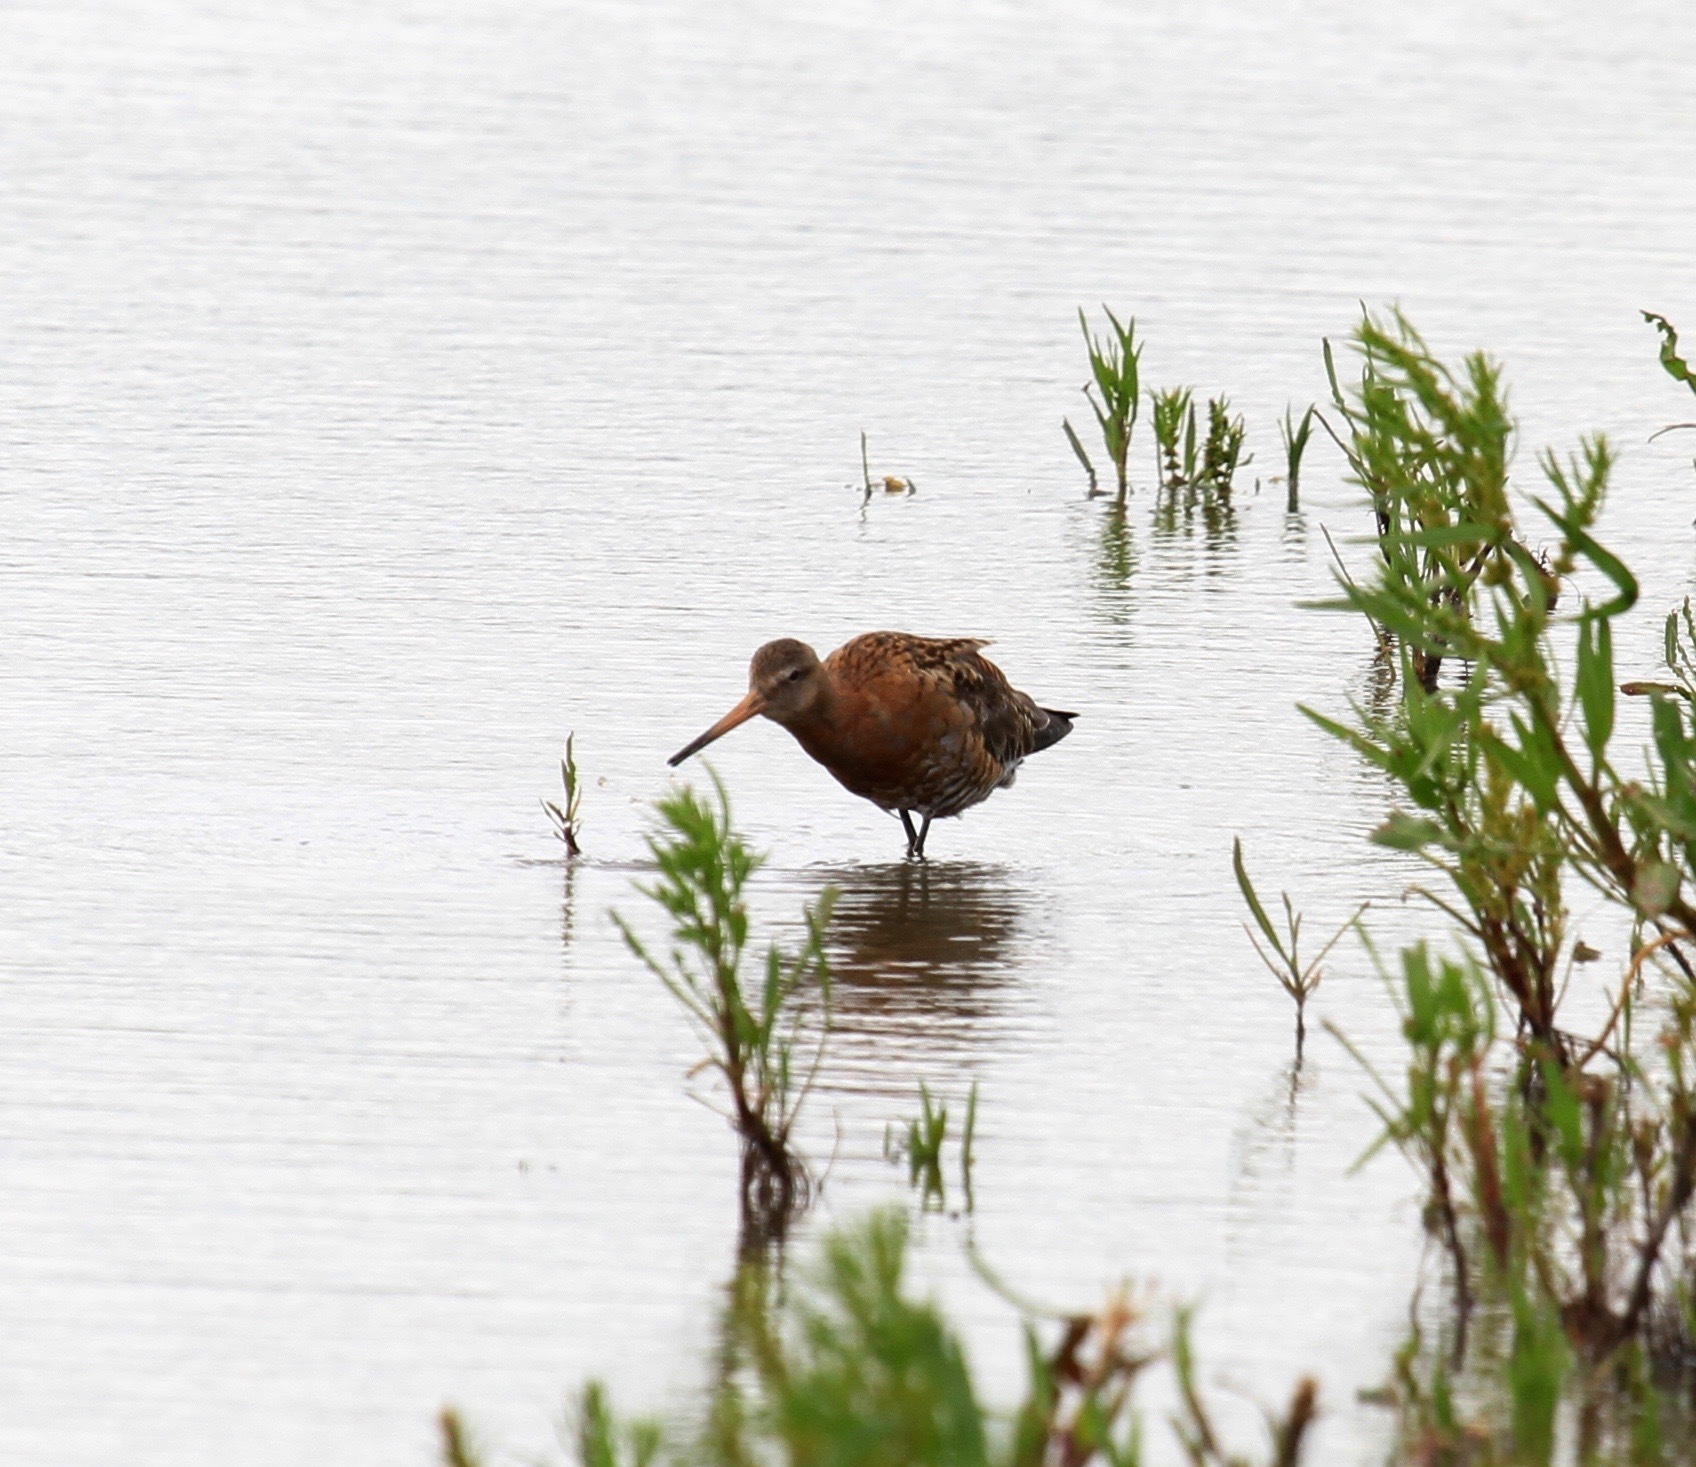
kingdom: Animalia
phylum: Chordata
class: Aves
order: Charadriiformes
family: Scolopacidae
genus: Limosa
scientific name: Limosa limosa
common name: Black-tailed godwit
